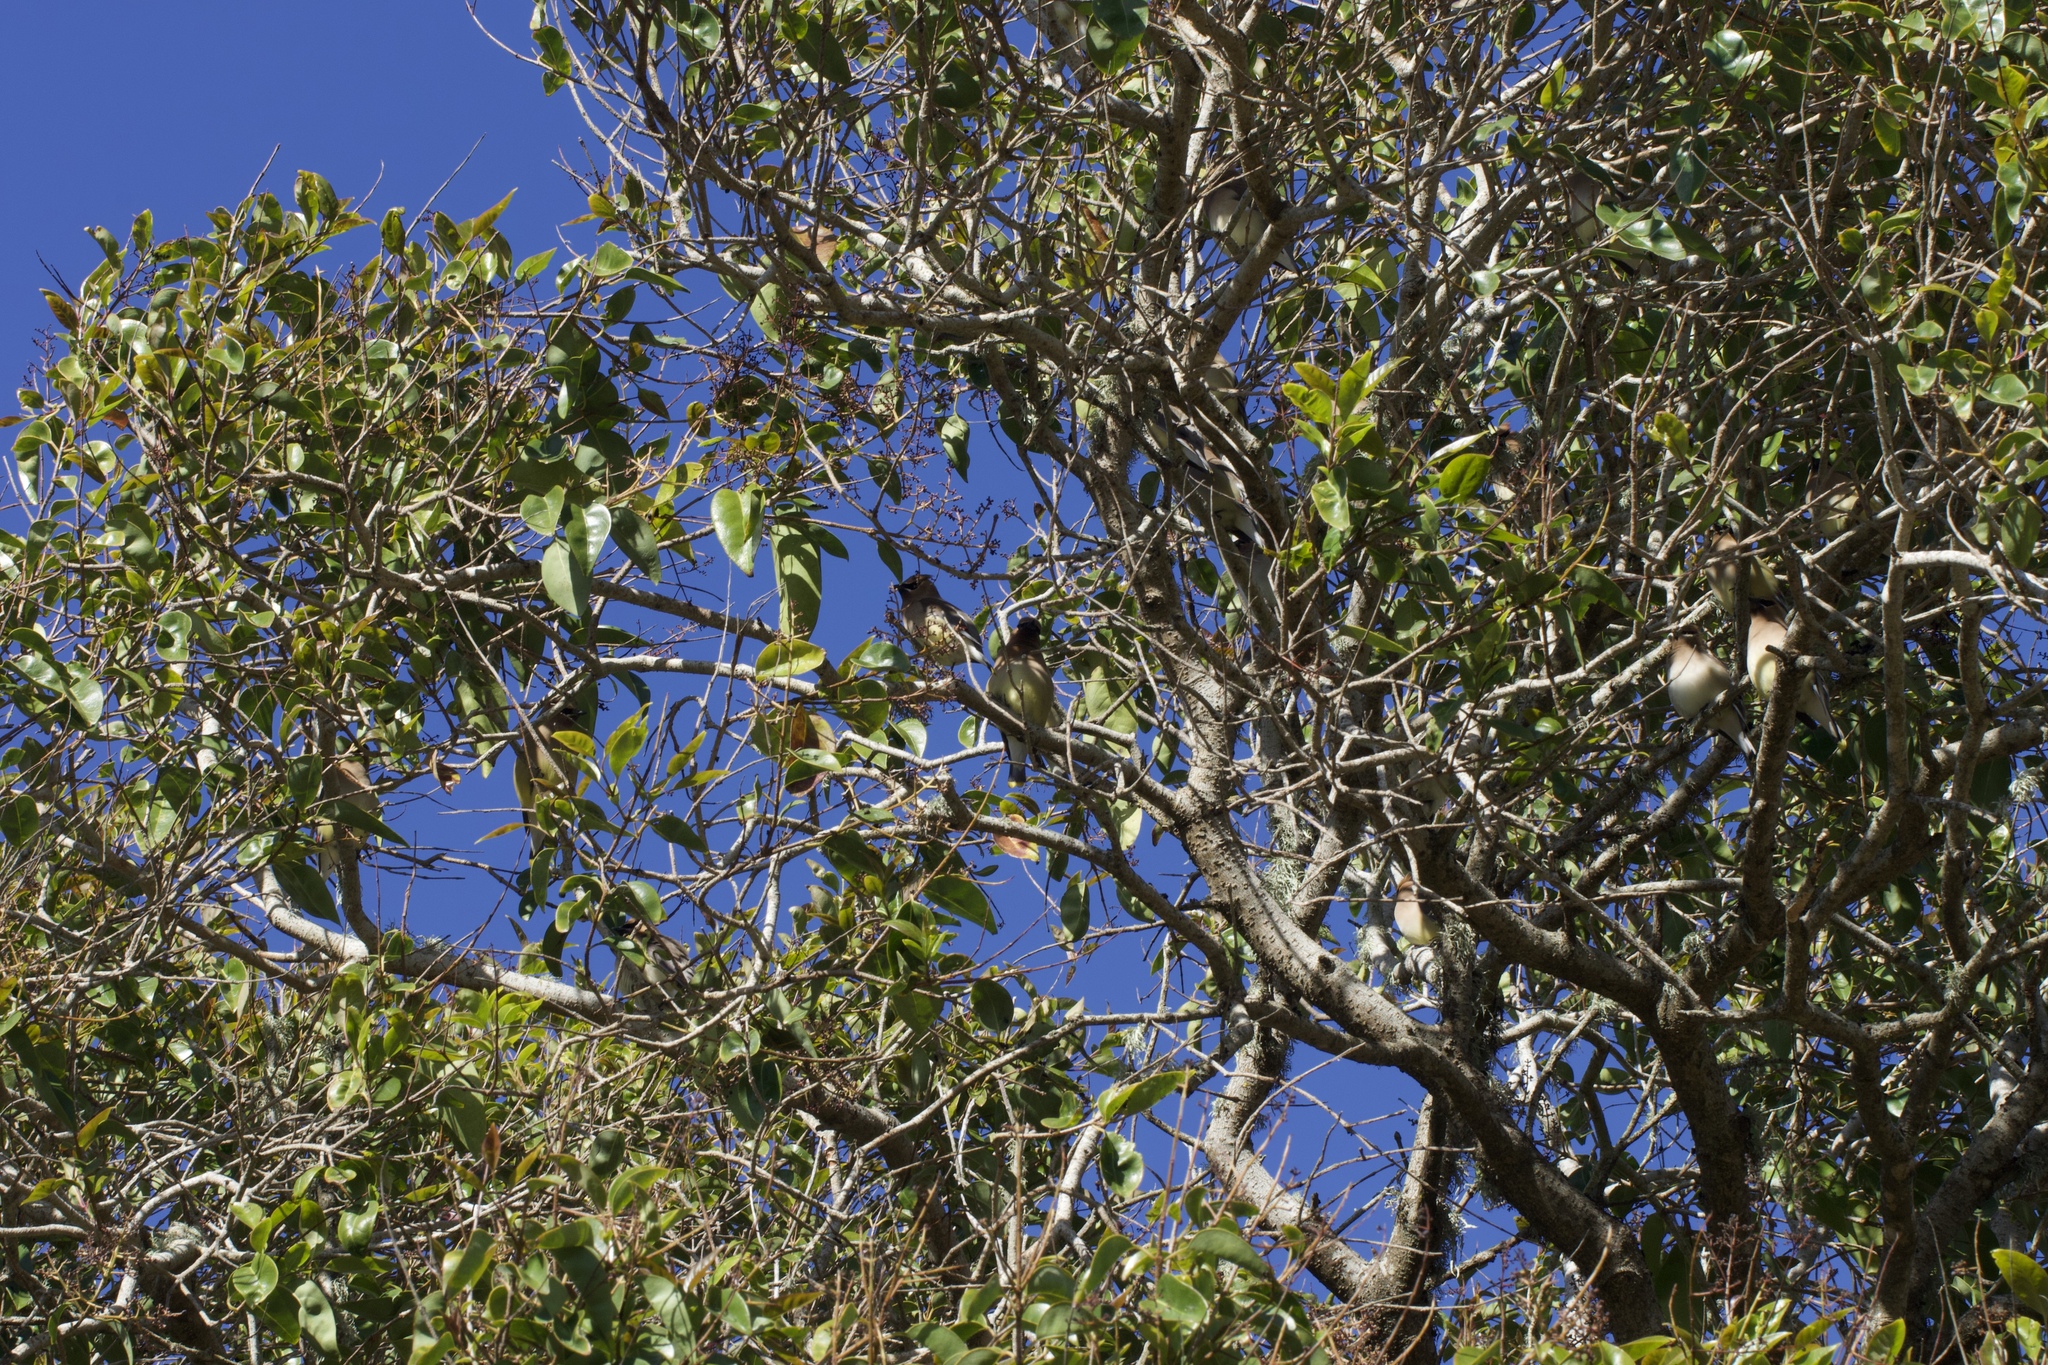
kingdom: Animalia
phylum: Chordata
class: Aves
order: Passeriformes
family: Bombycillidae
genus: Bombycilla
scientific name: Bombycilla cedrorum
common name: Cedar waxwing
